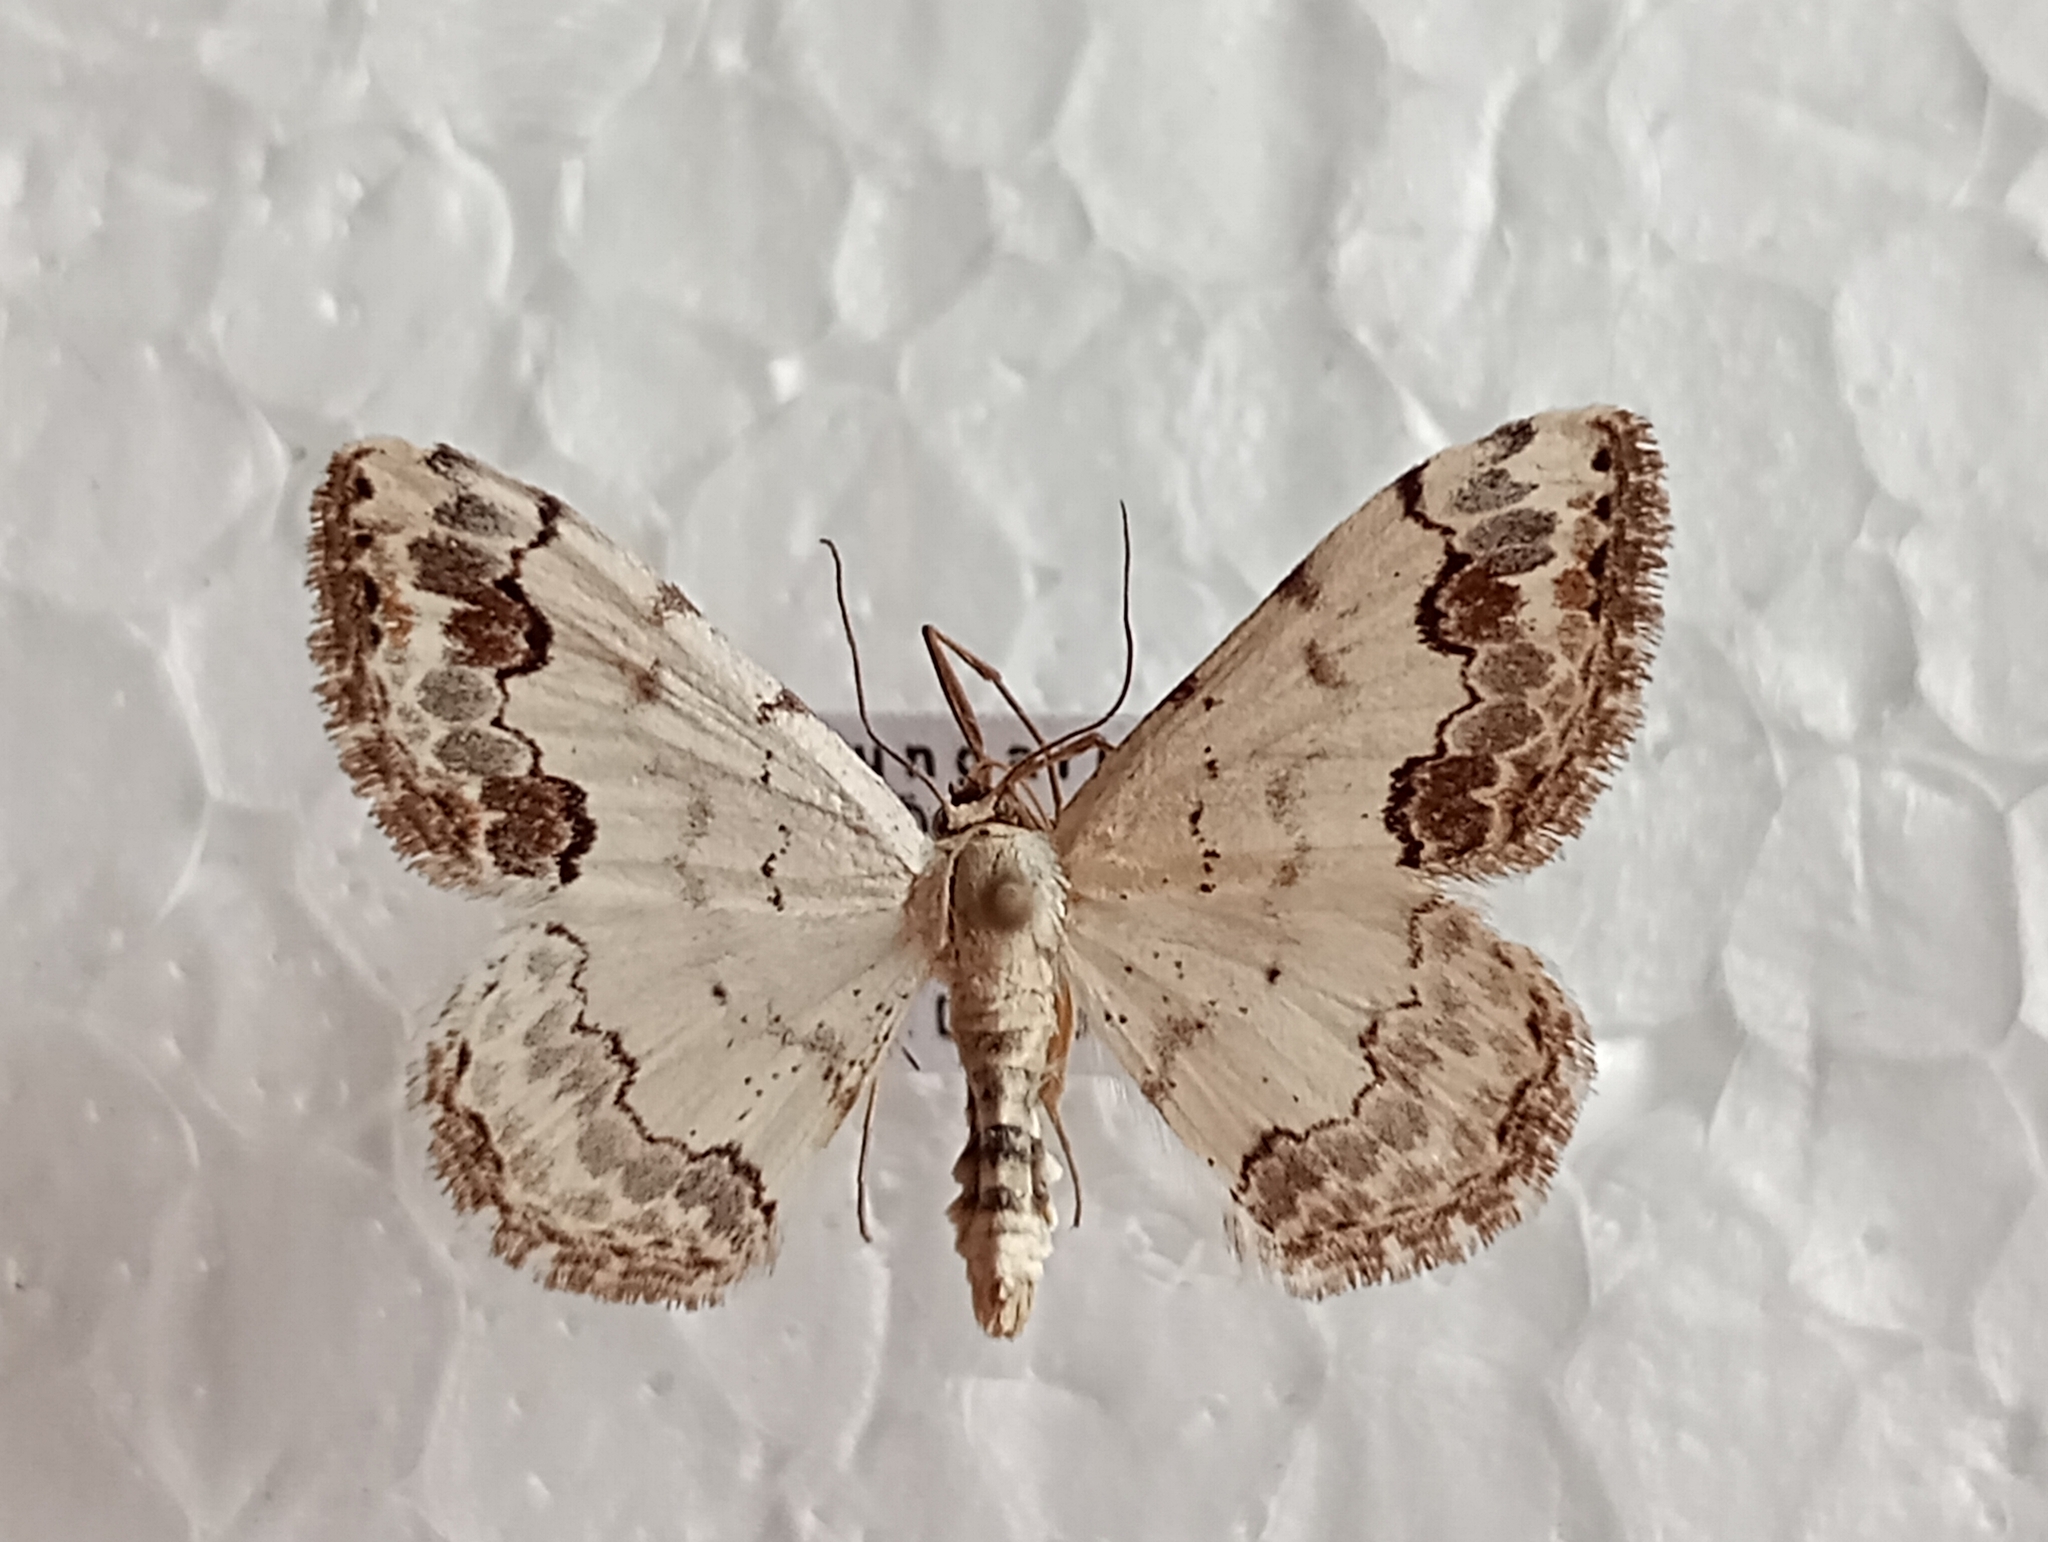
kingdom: Animalia
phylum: Arthropoda
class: Insecta
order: Lepidoptera
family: Geometridae
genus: Scopula
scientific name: Scopula decorata
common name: Middle lace border
